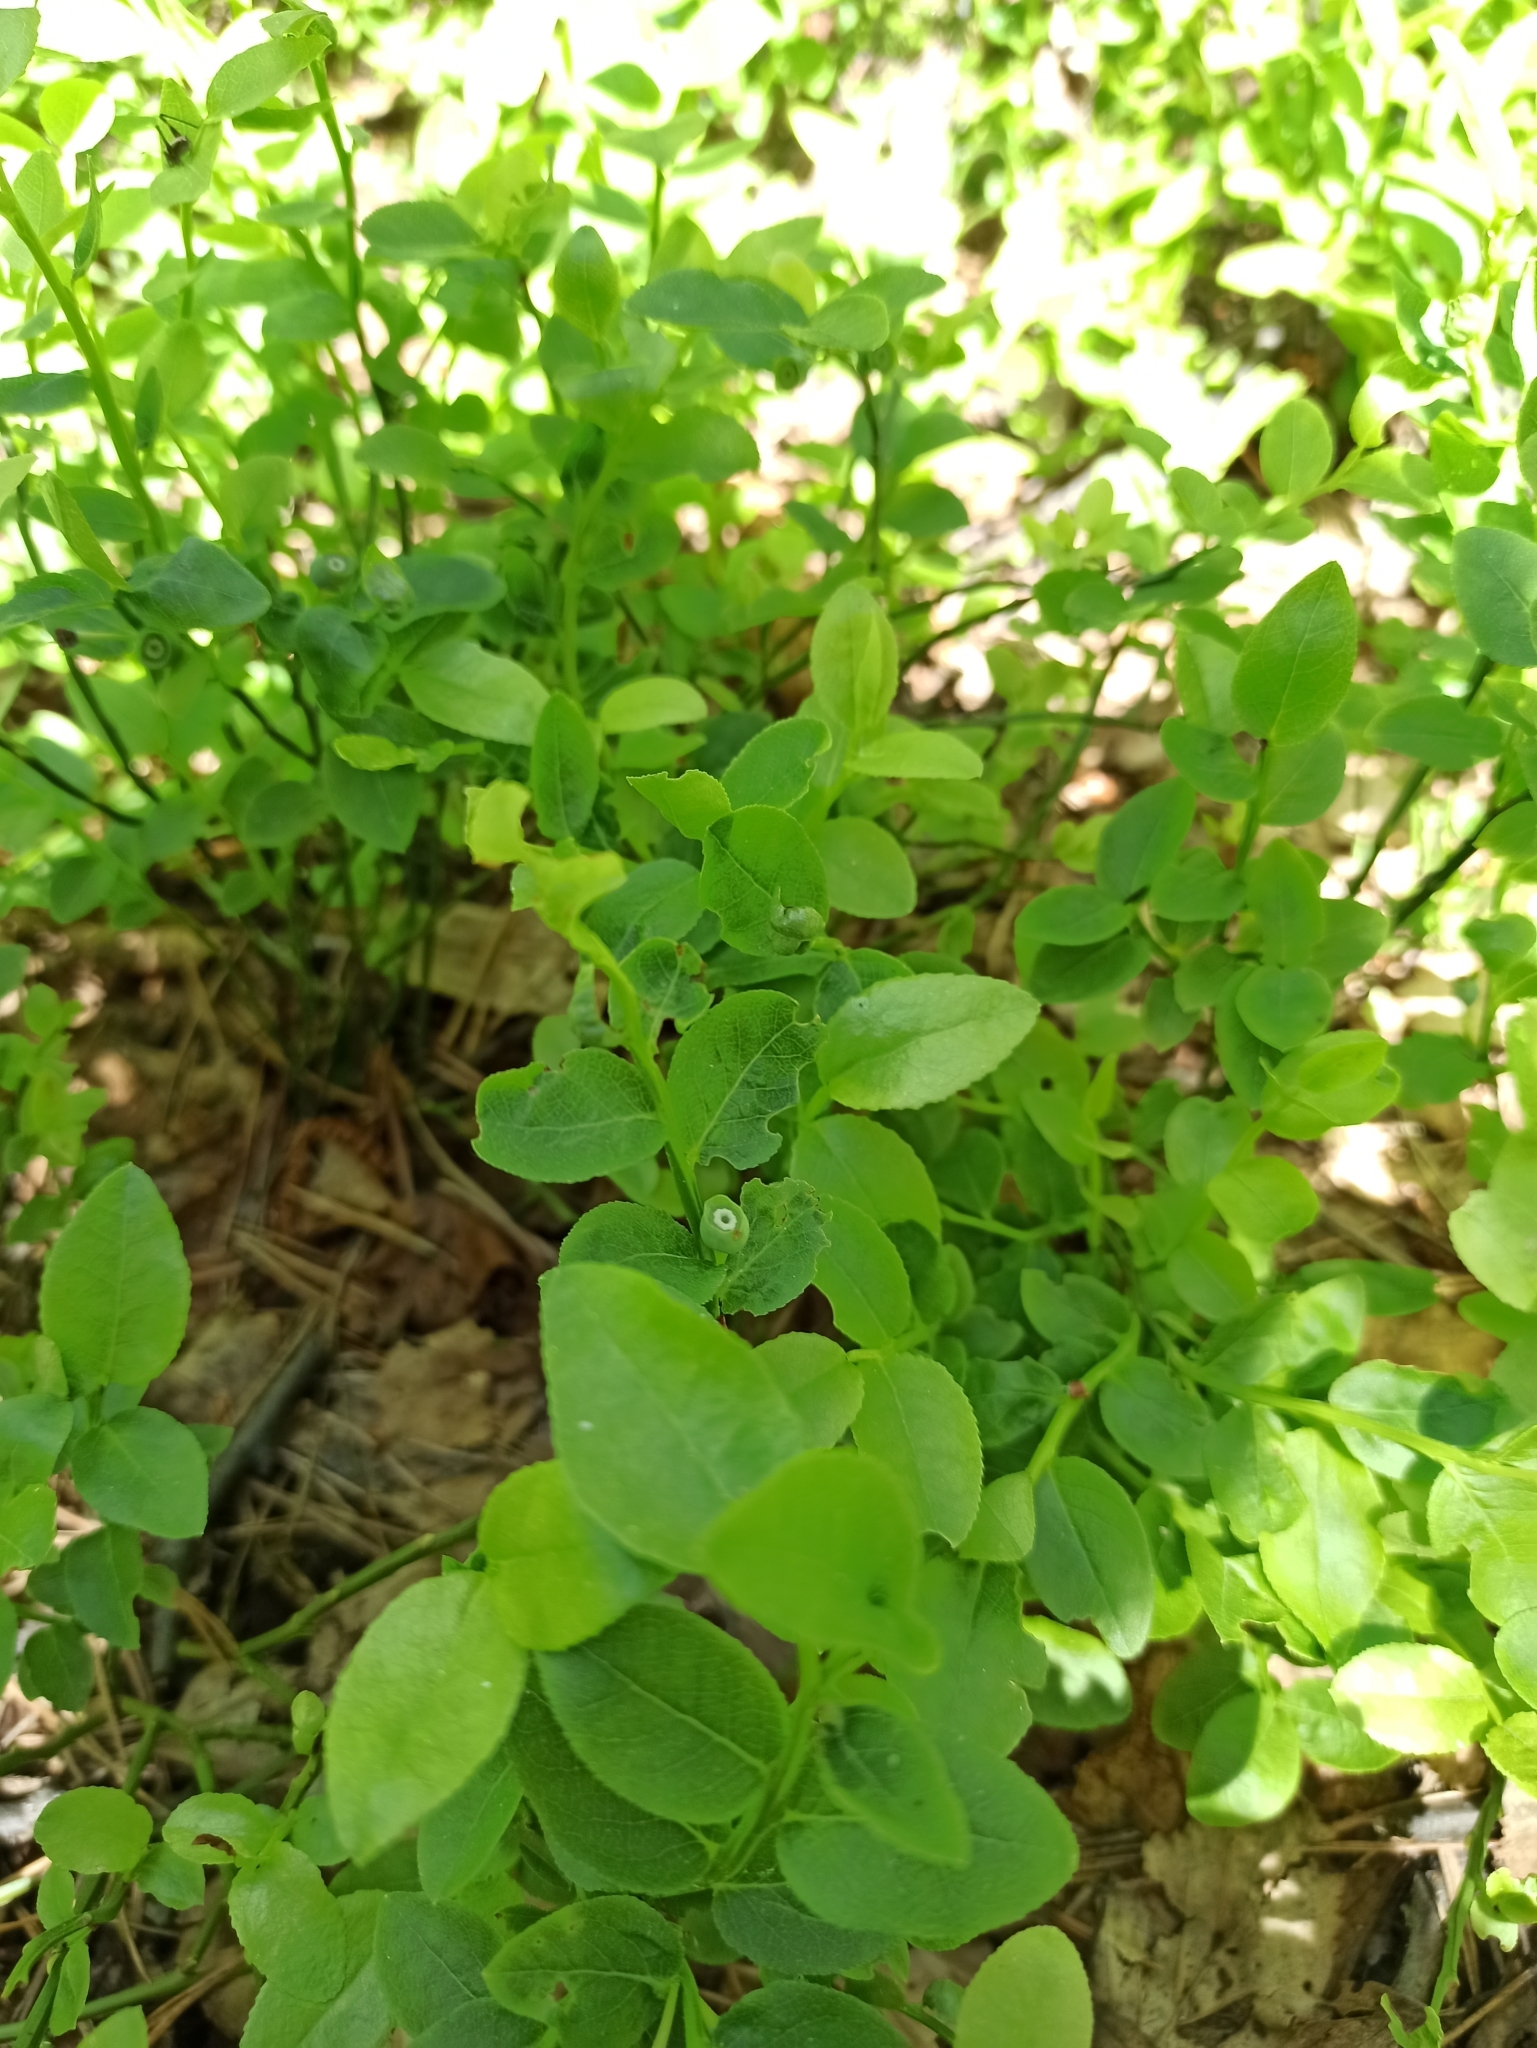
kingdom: Plantae
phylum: Tracheophyta
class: Magnoliopsida
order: Ericales
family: Ericaceae
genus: Vaccinium
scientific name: Vaccinium myrtillus
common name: Bilberry
